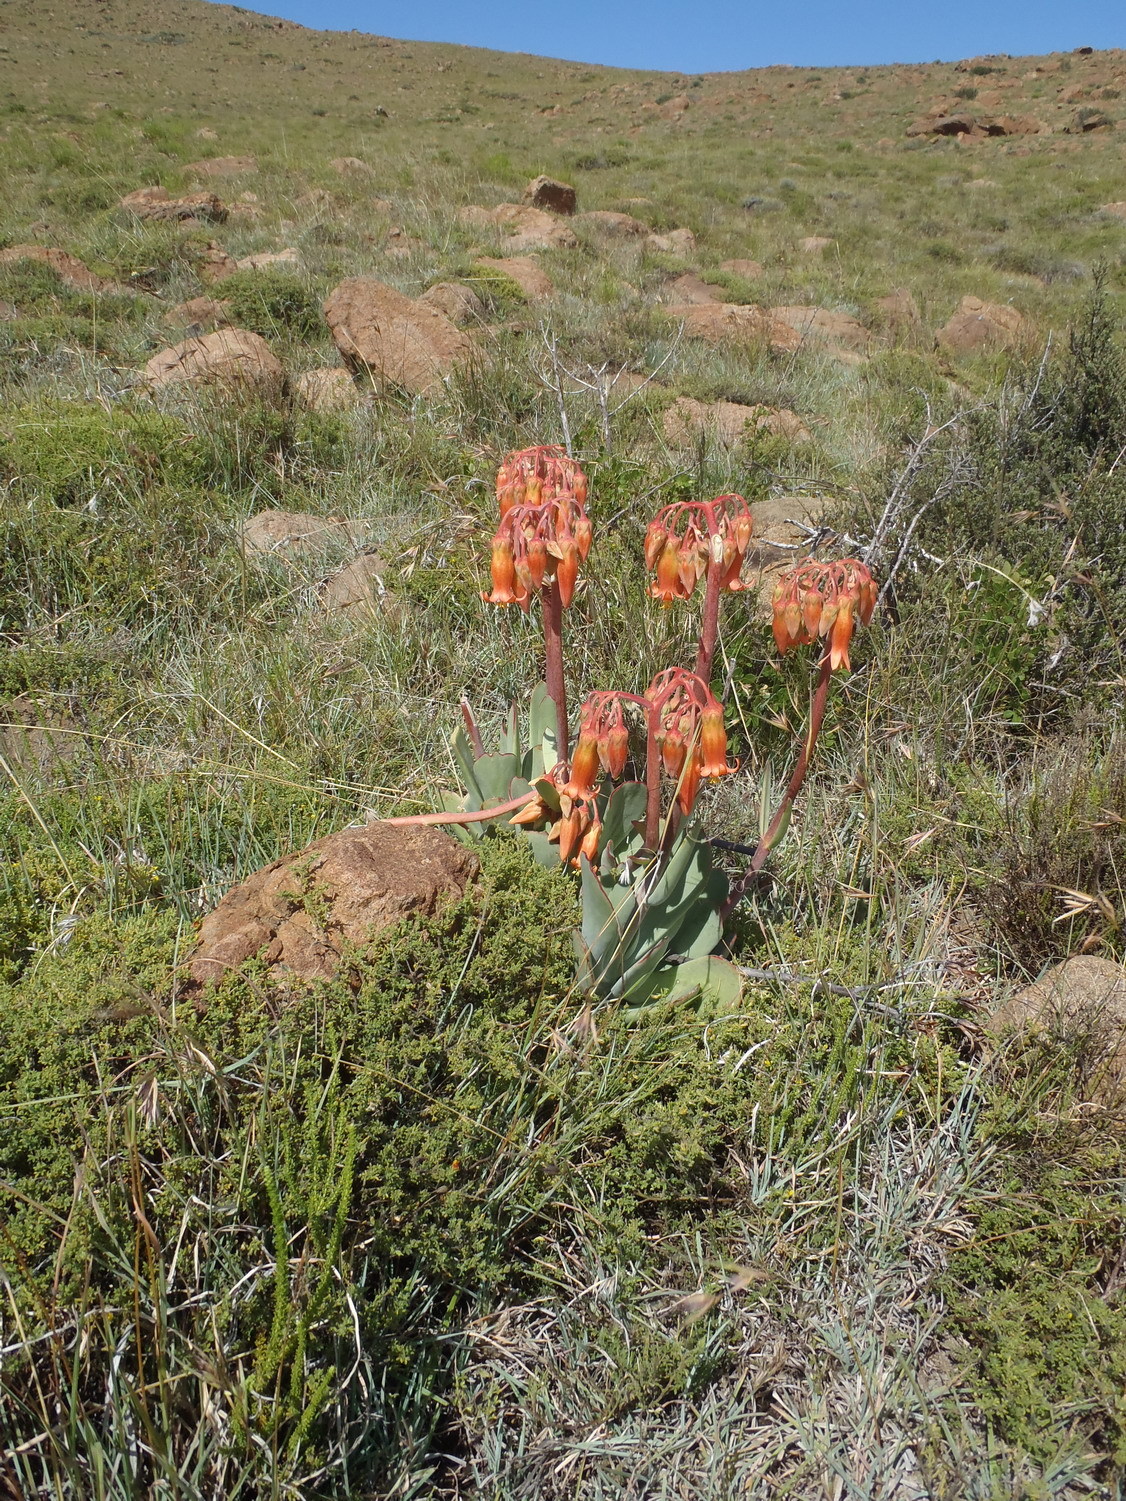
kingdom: Plantae
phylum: Tracheophyta
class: Magnoliopsida
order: Saxifragales
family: Crassulaceae
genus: Cotyledon
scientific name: Cotyledon orbiculata
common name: Pig's ear
